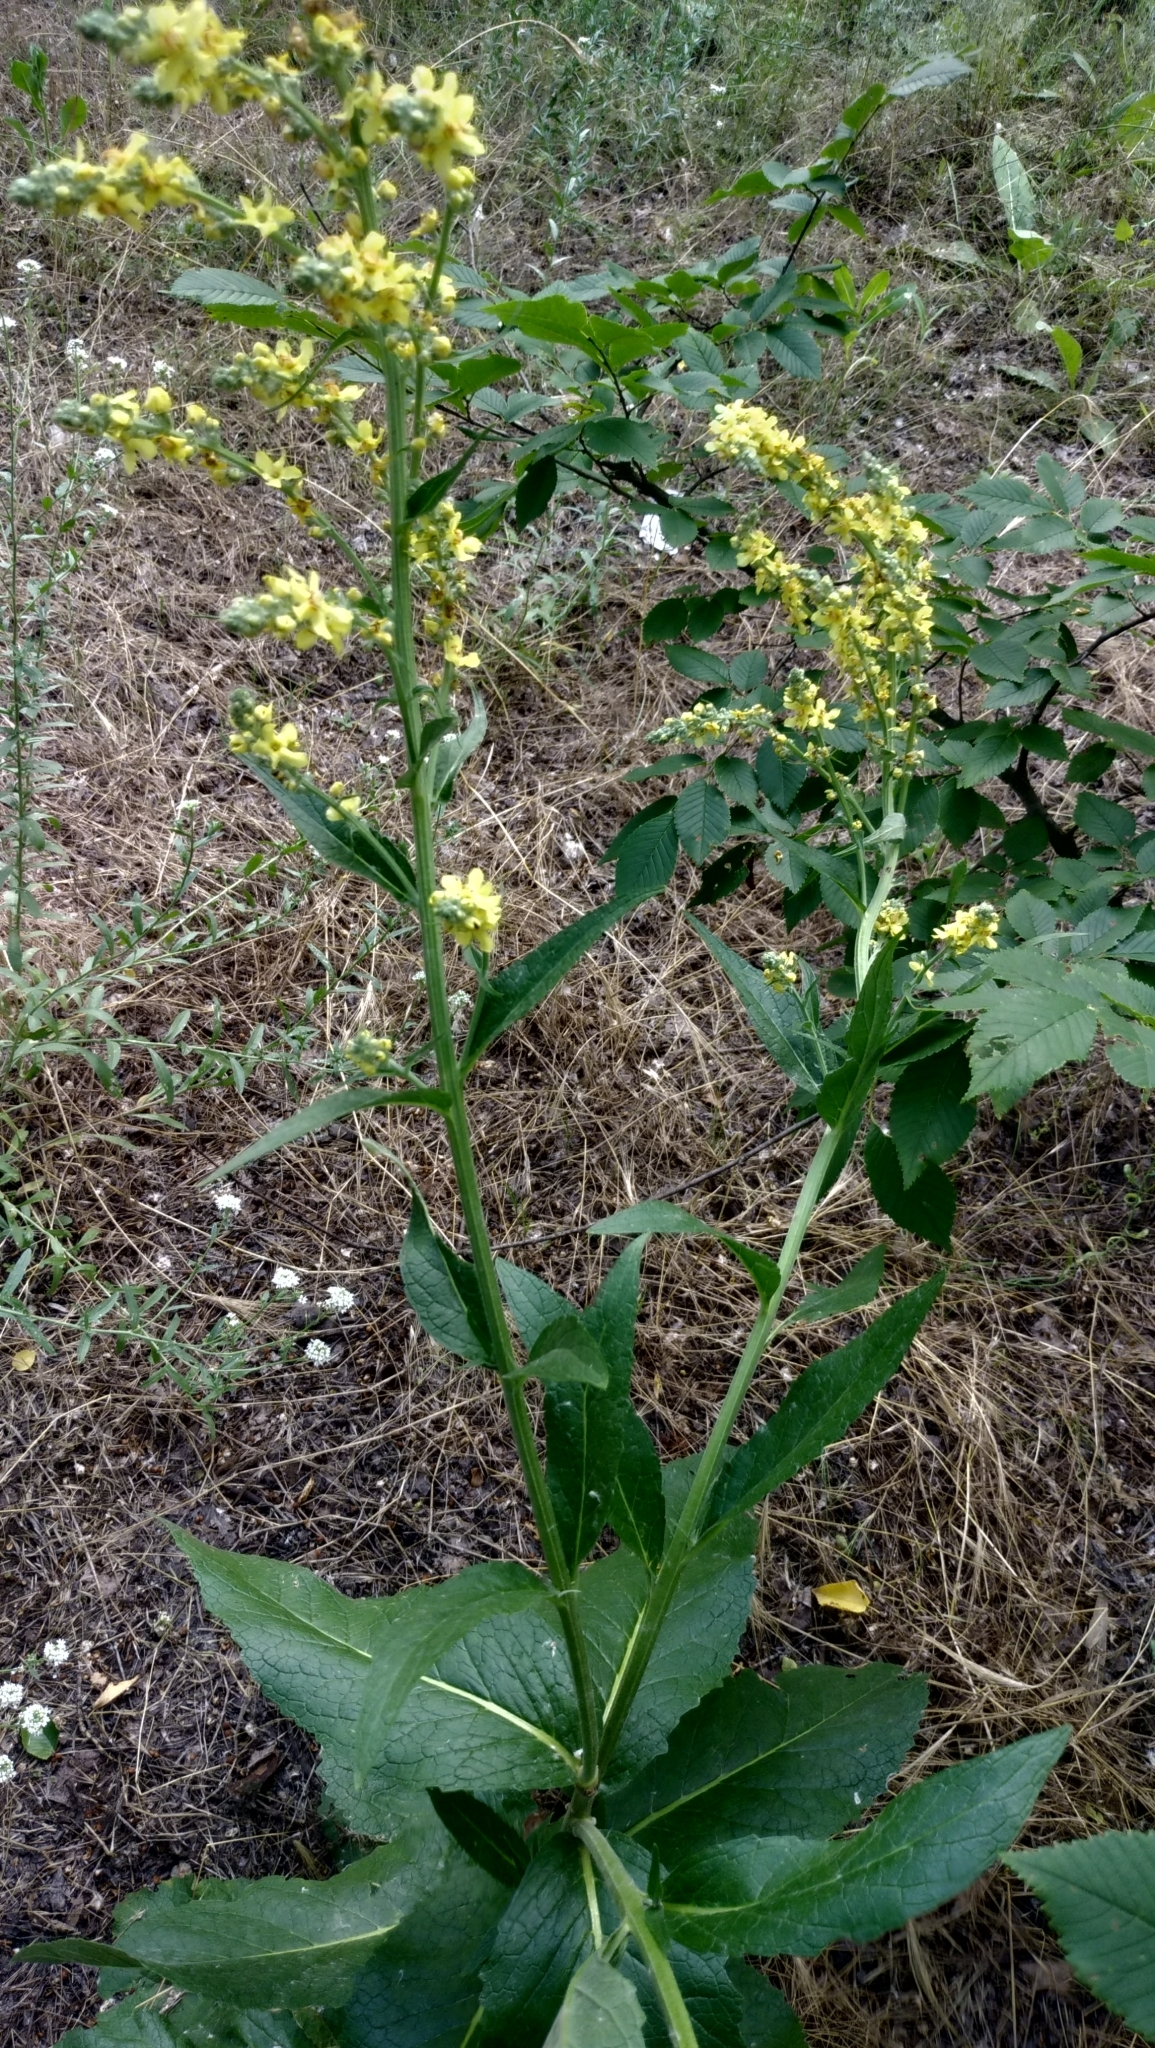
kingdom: Plantae
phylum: Tracheophyta
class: Magnoliopsida
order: Lamiales
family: Scrophulariaceae
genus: Verbascum
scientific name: Verbascum lychnitis
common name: White mullein
